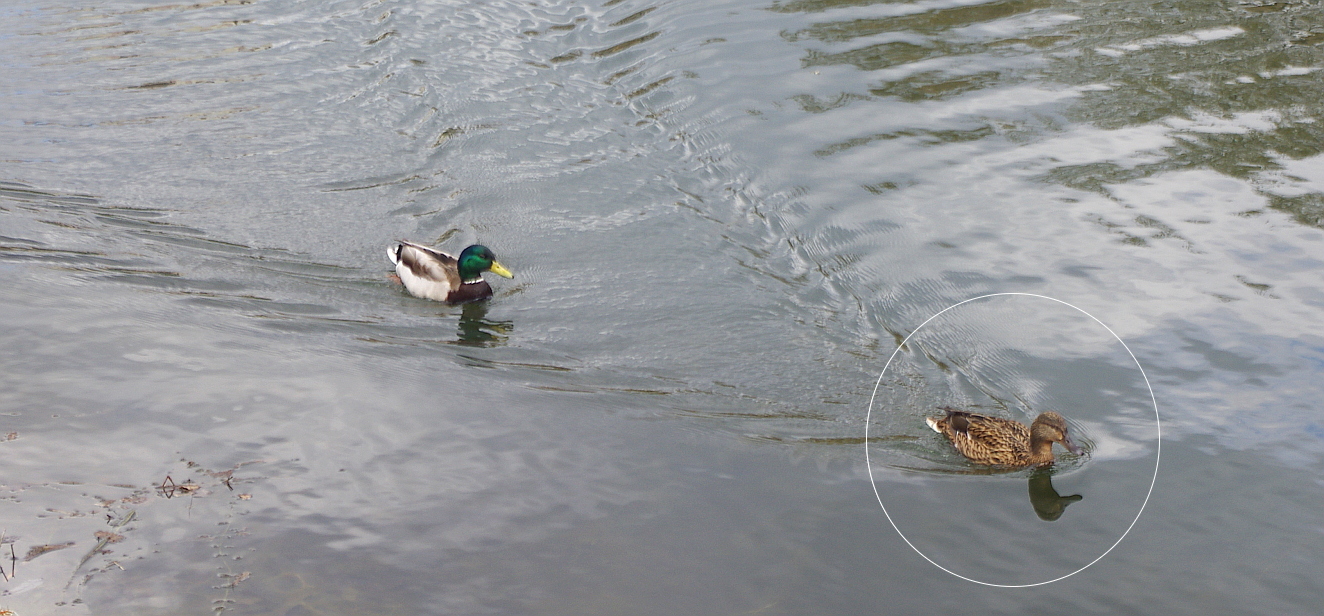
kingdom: Animalia
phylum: Chordata
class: Aves
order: Anseriformes
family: Anatidae
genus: Anas
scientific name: Anas platyrhynchos
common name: Mallard
